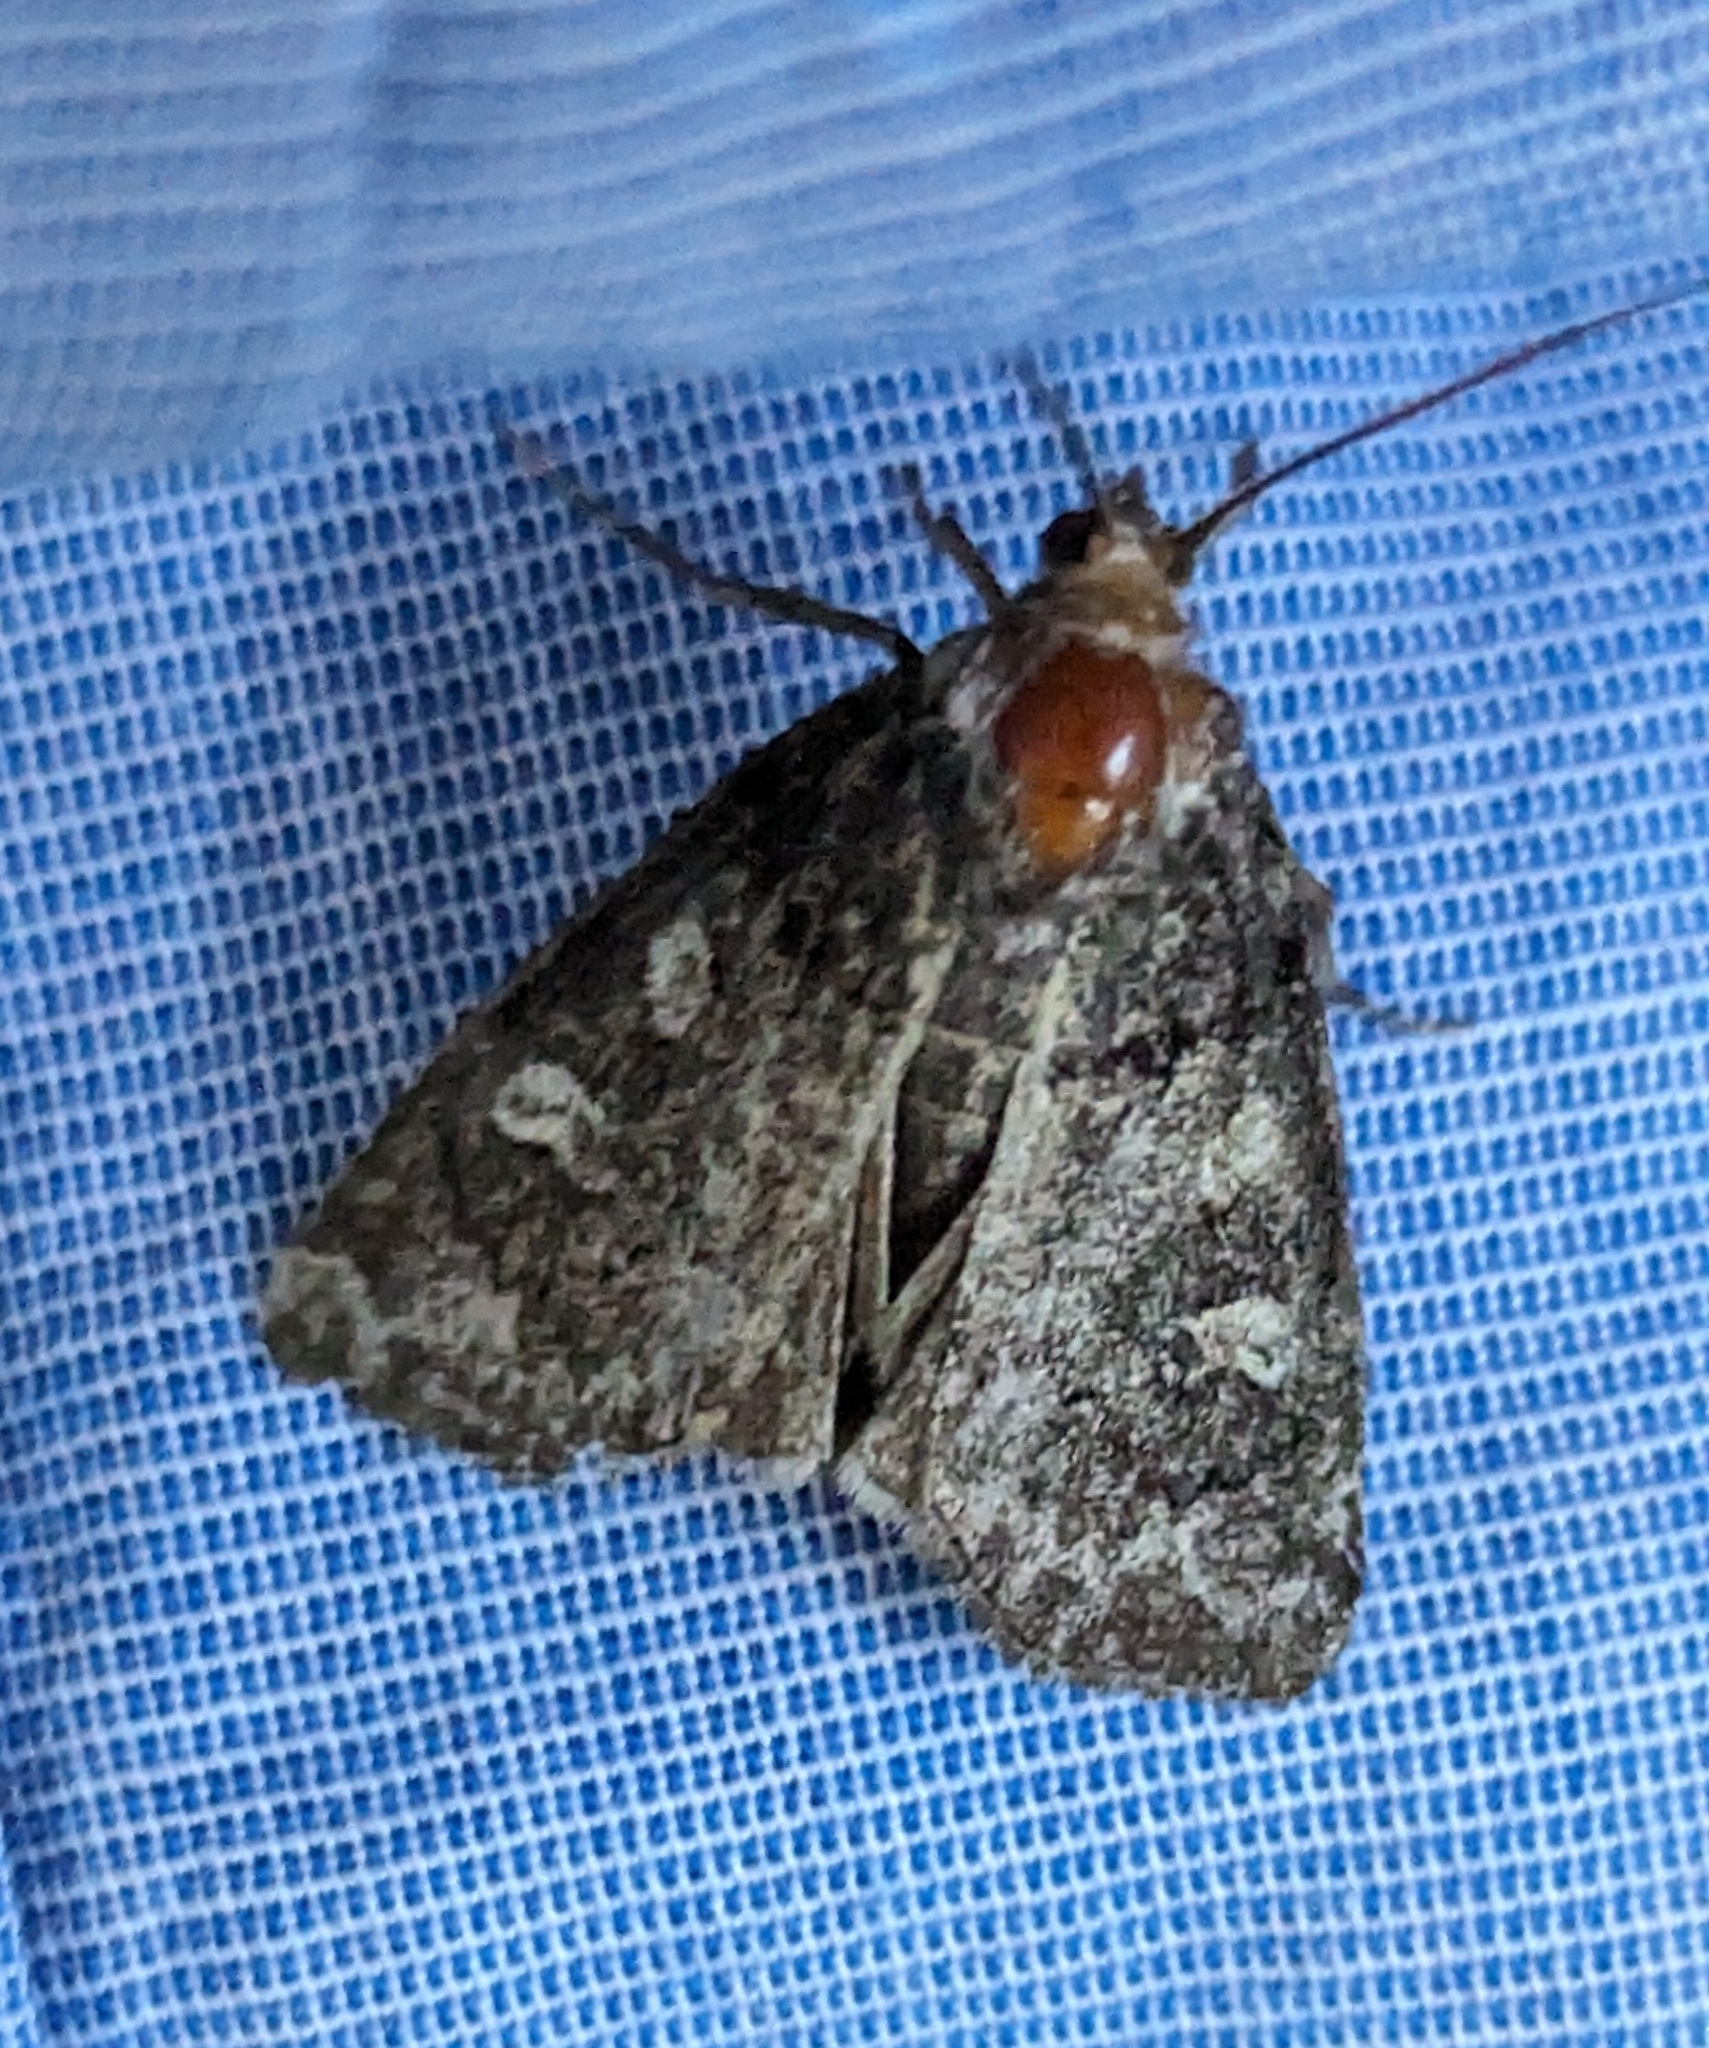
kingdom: Animalia
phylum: Arthropoda
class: Insecta
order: Lepidoptera
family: Noctuidae
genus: Cosmia
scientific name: Cosmia praeacuta
